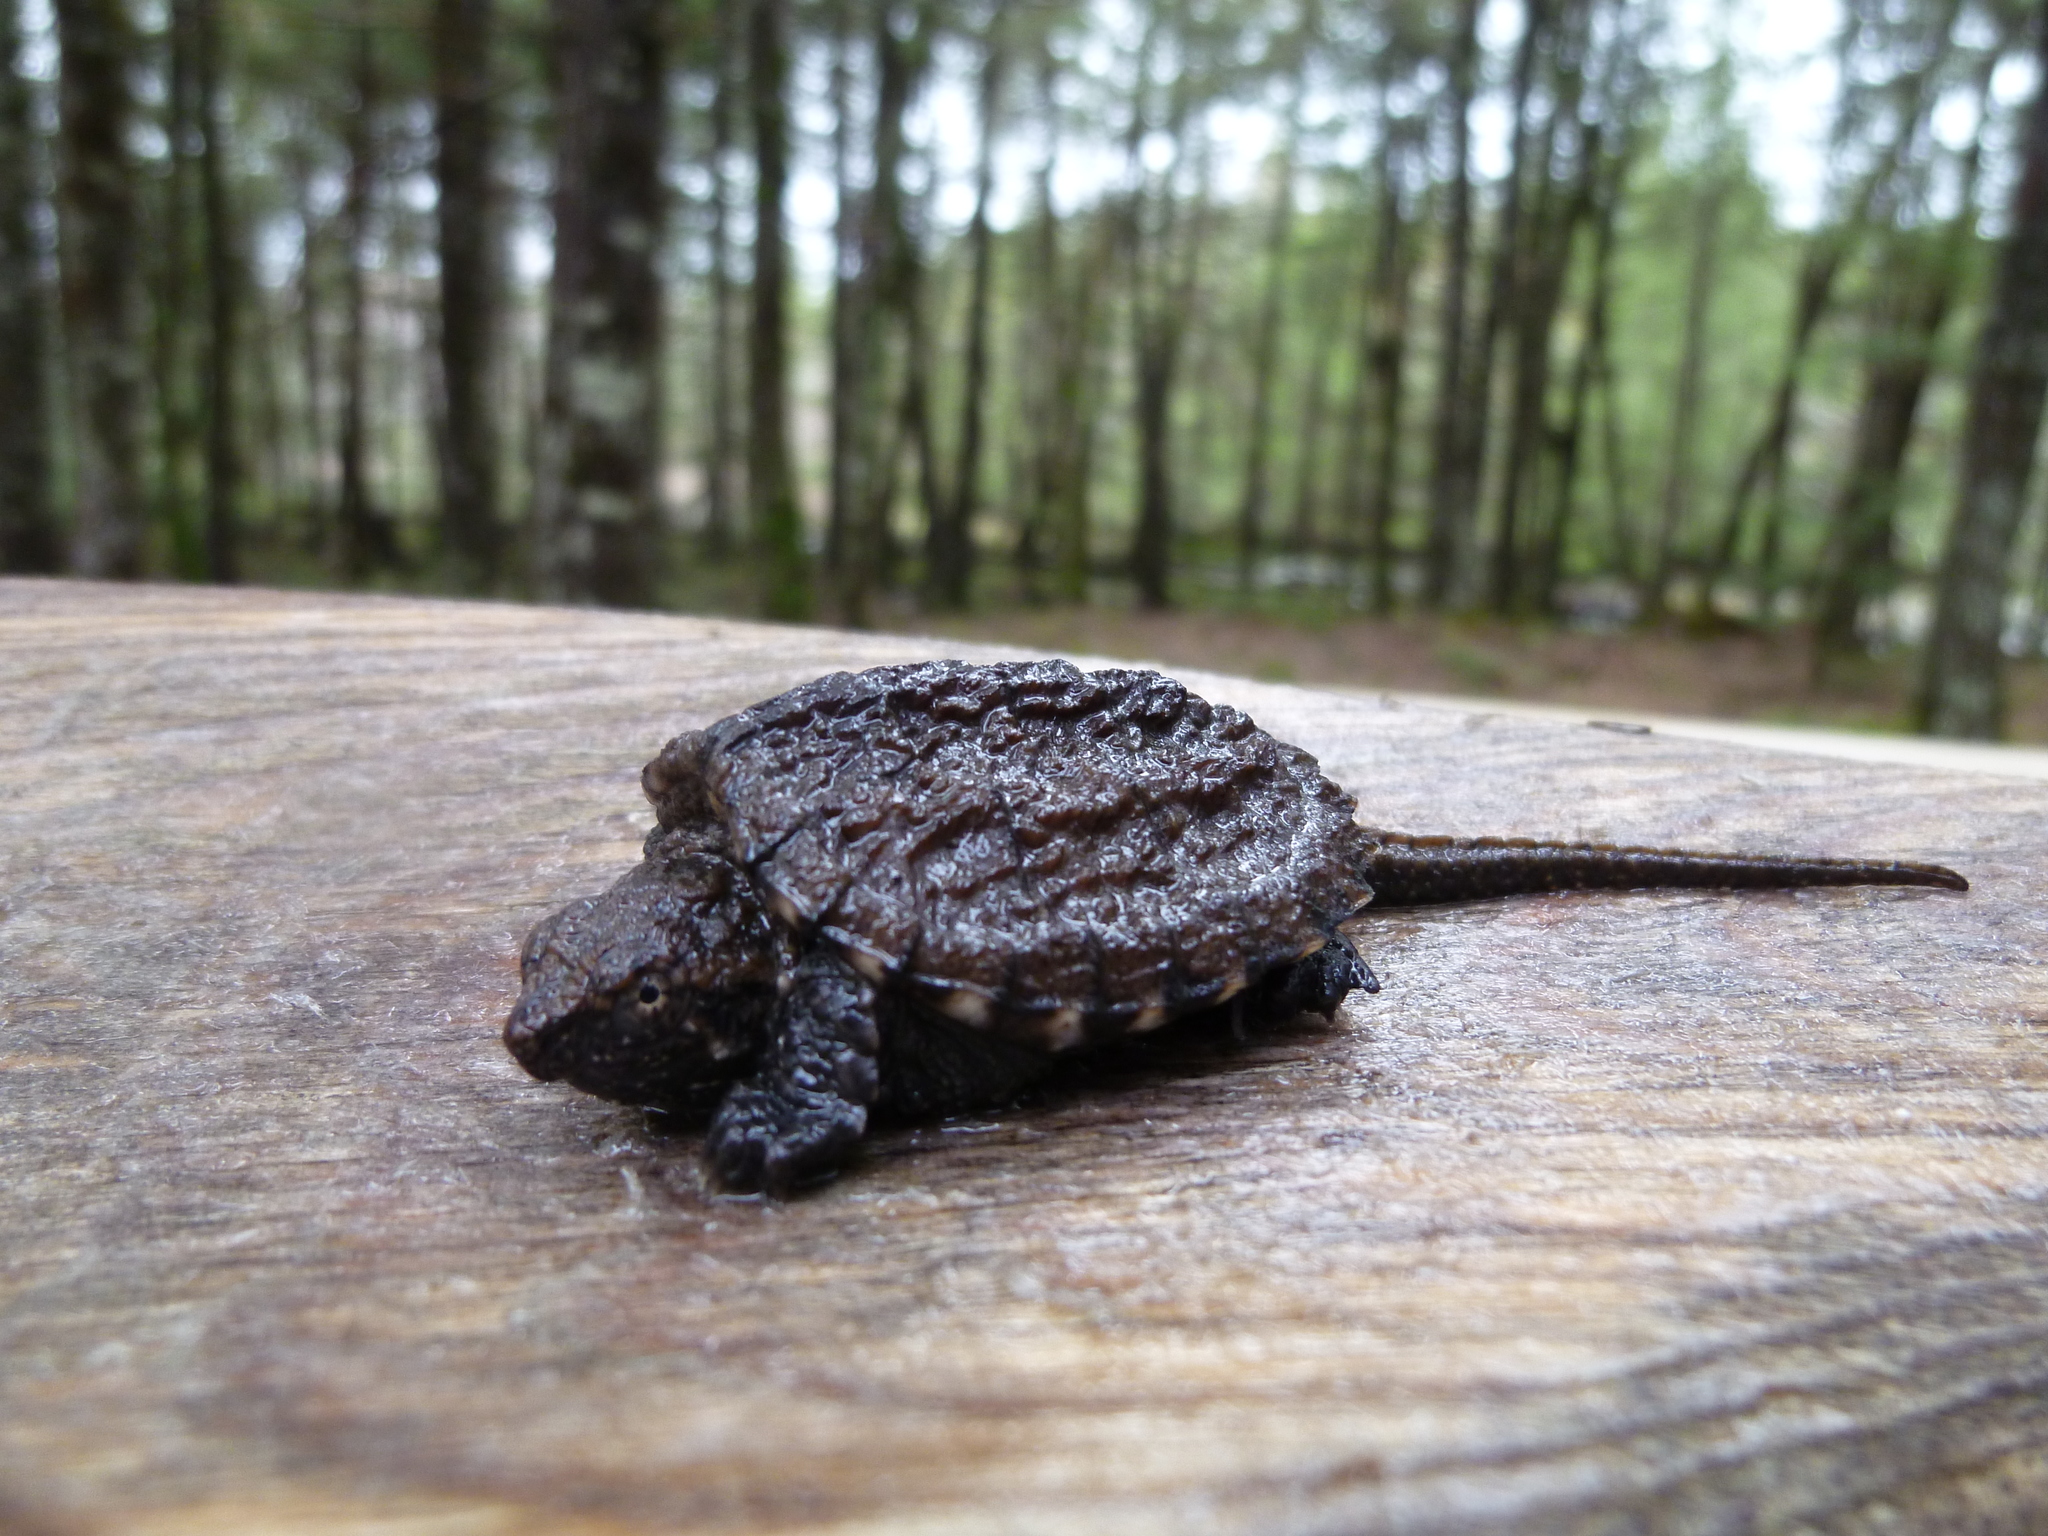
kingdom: Animalia
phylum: Chordata
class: Testudines
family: Chelydridae
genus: Chelydra
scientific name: Chelydra serpentina
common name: Common snapping turtle
